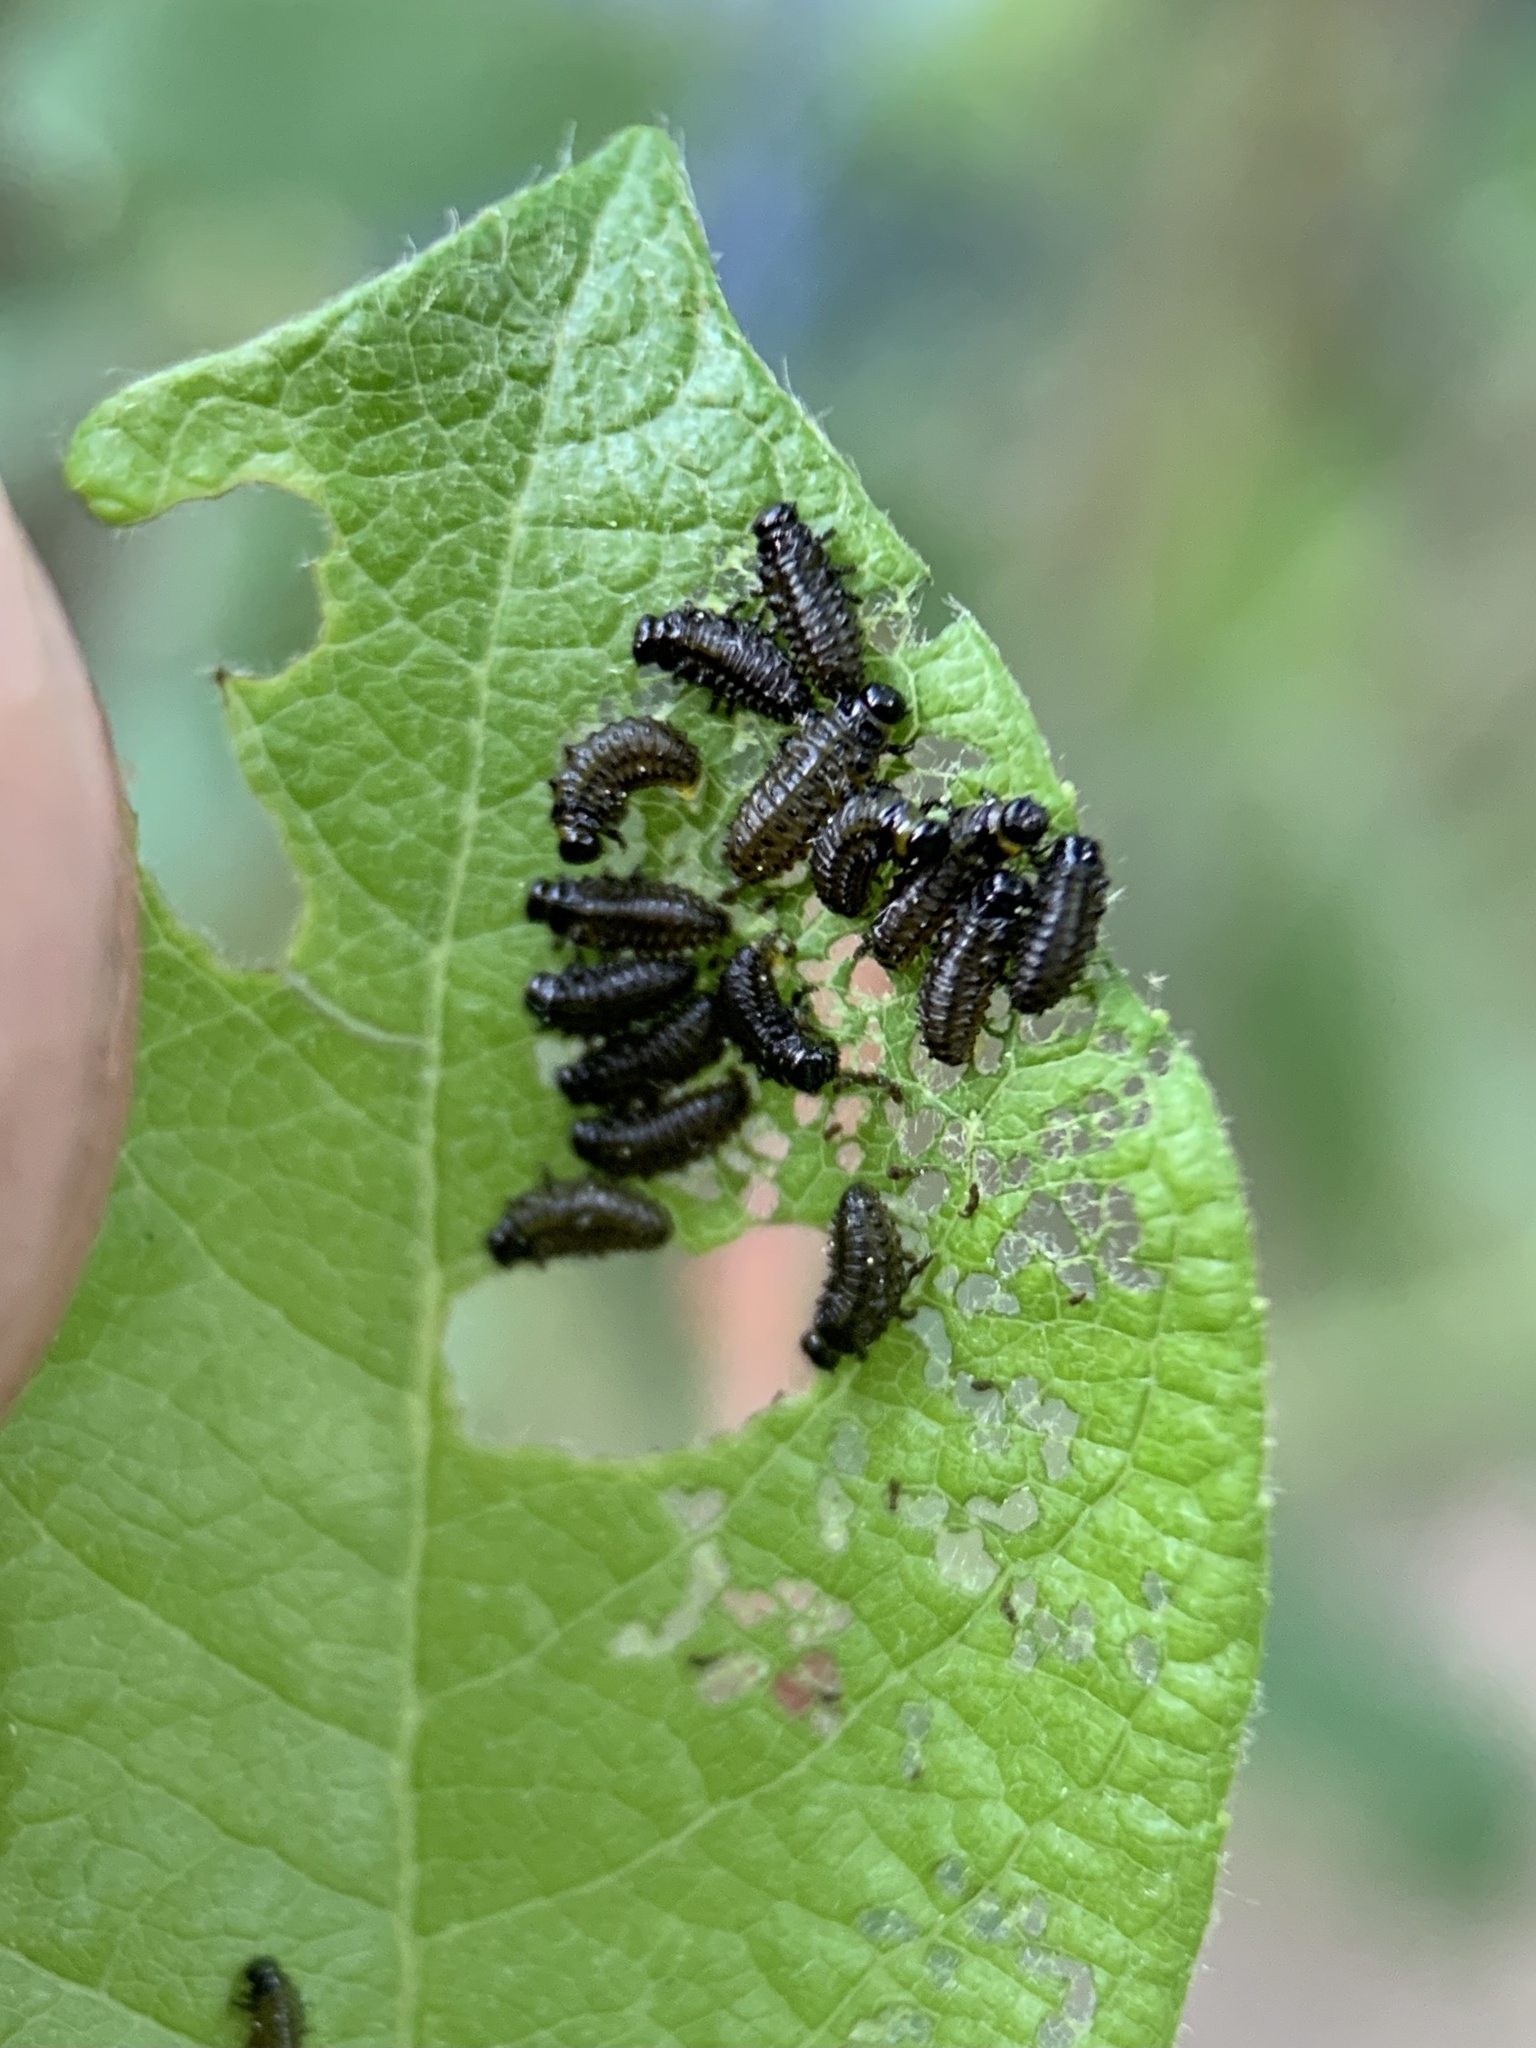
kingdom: Animalia
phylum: Arthropoda
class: Insecta
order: Coleoptera
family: Chrysomelidae
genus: Plagiodera
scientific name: Plagiodera versicolora
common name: Imported willow leaf beetle
